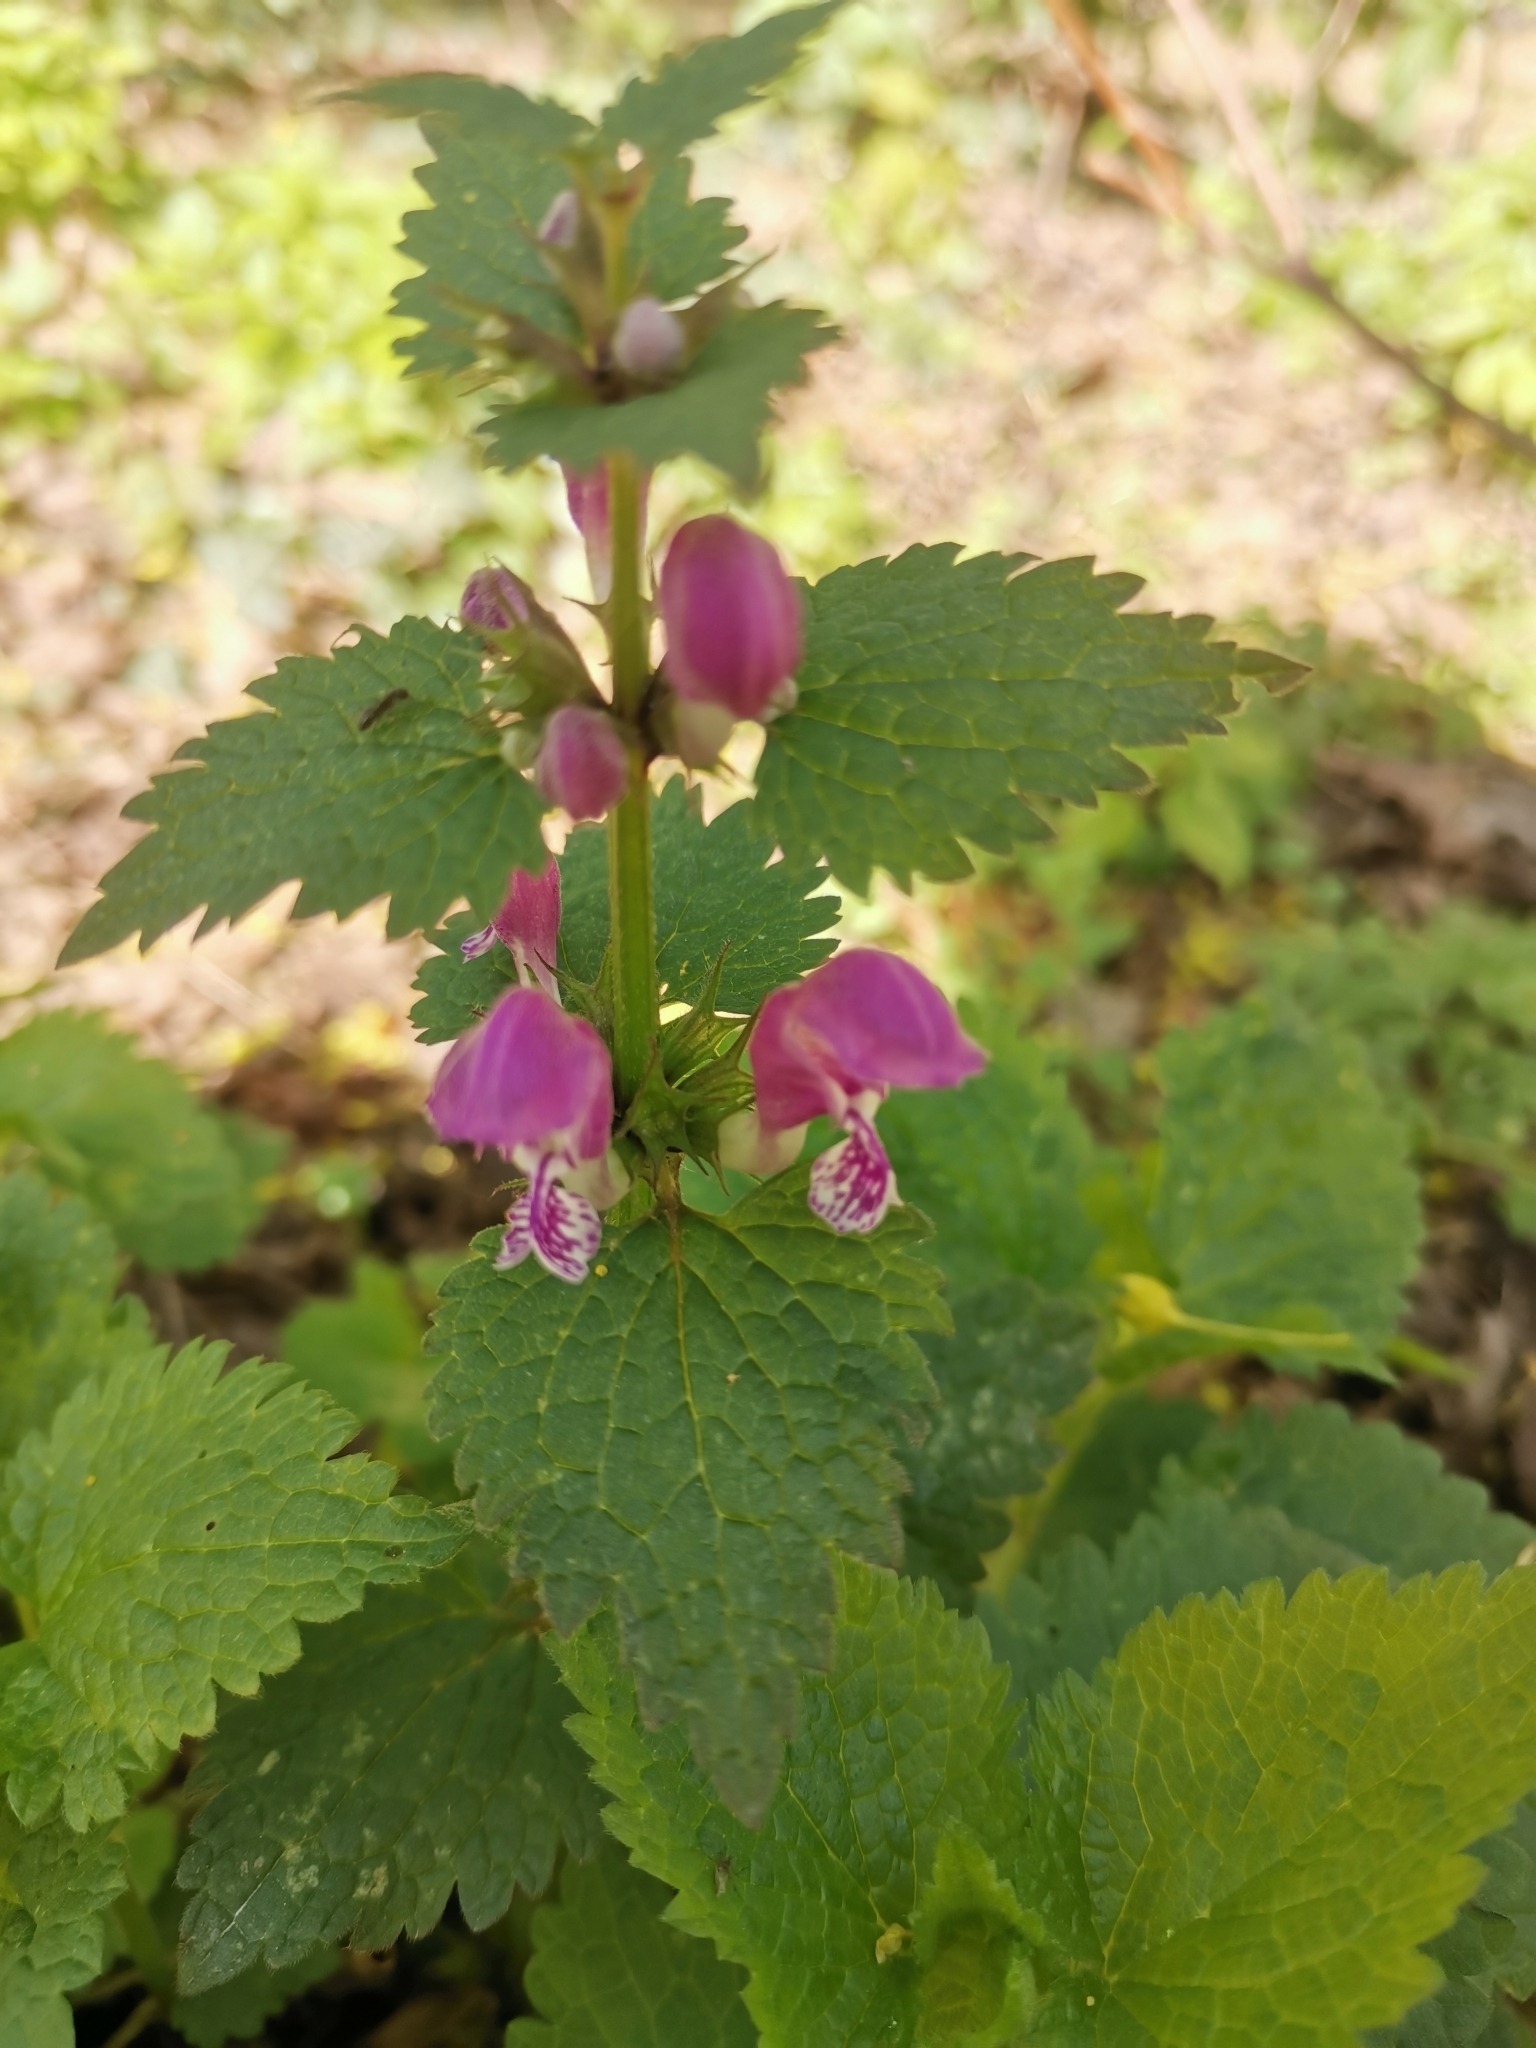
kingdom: Plantae
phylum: Tracheophyta
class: Magnoliopsida
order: Lamiales
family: Lamiaceae
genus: Lamium
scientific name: Lamium maculatum
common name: Spotted dead-nettle
